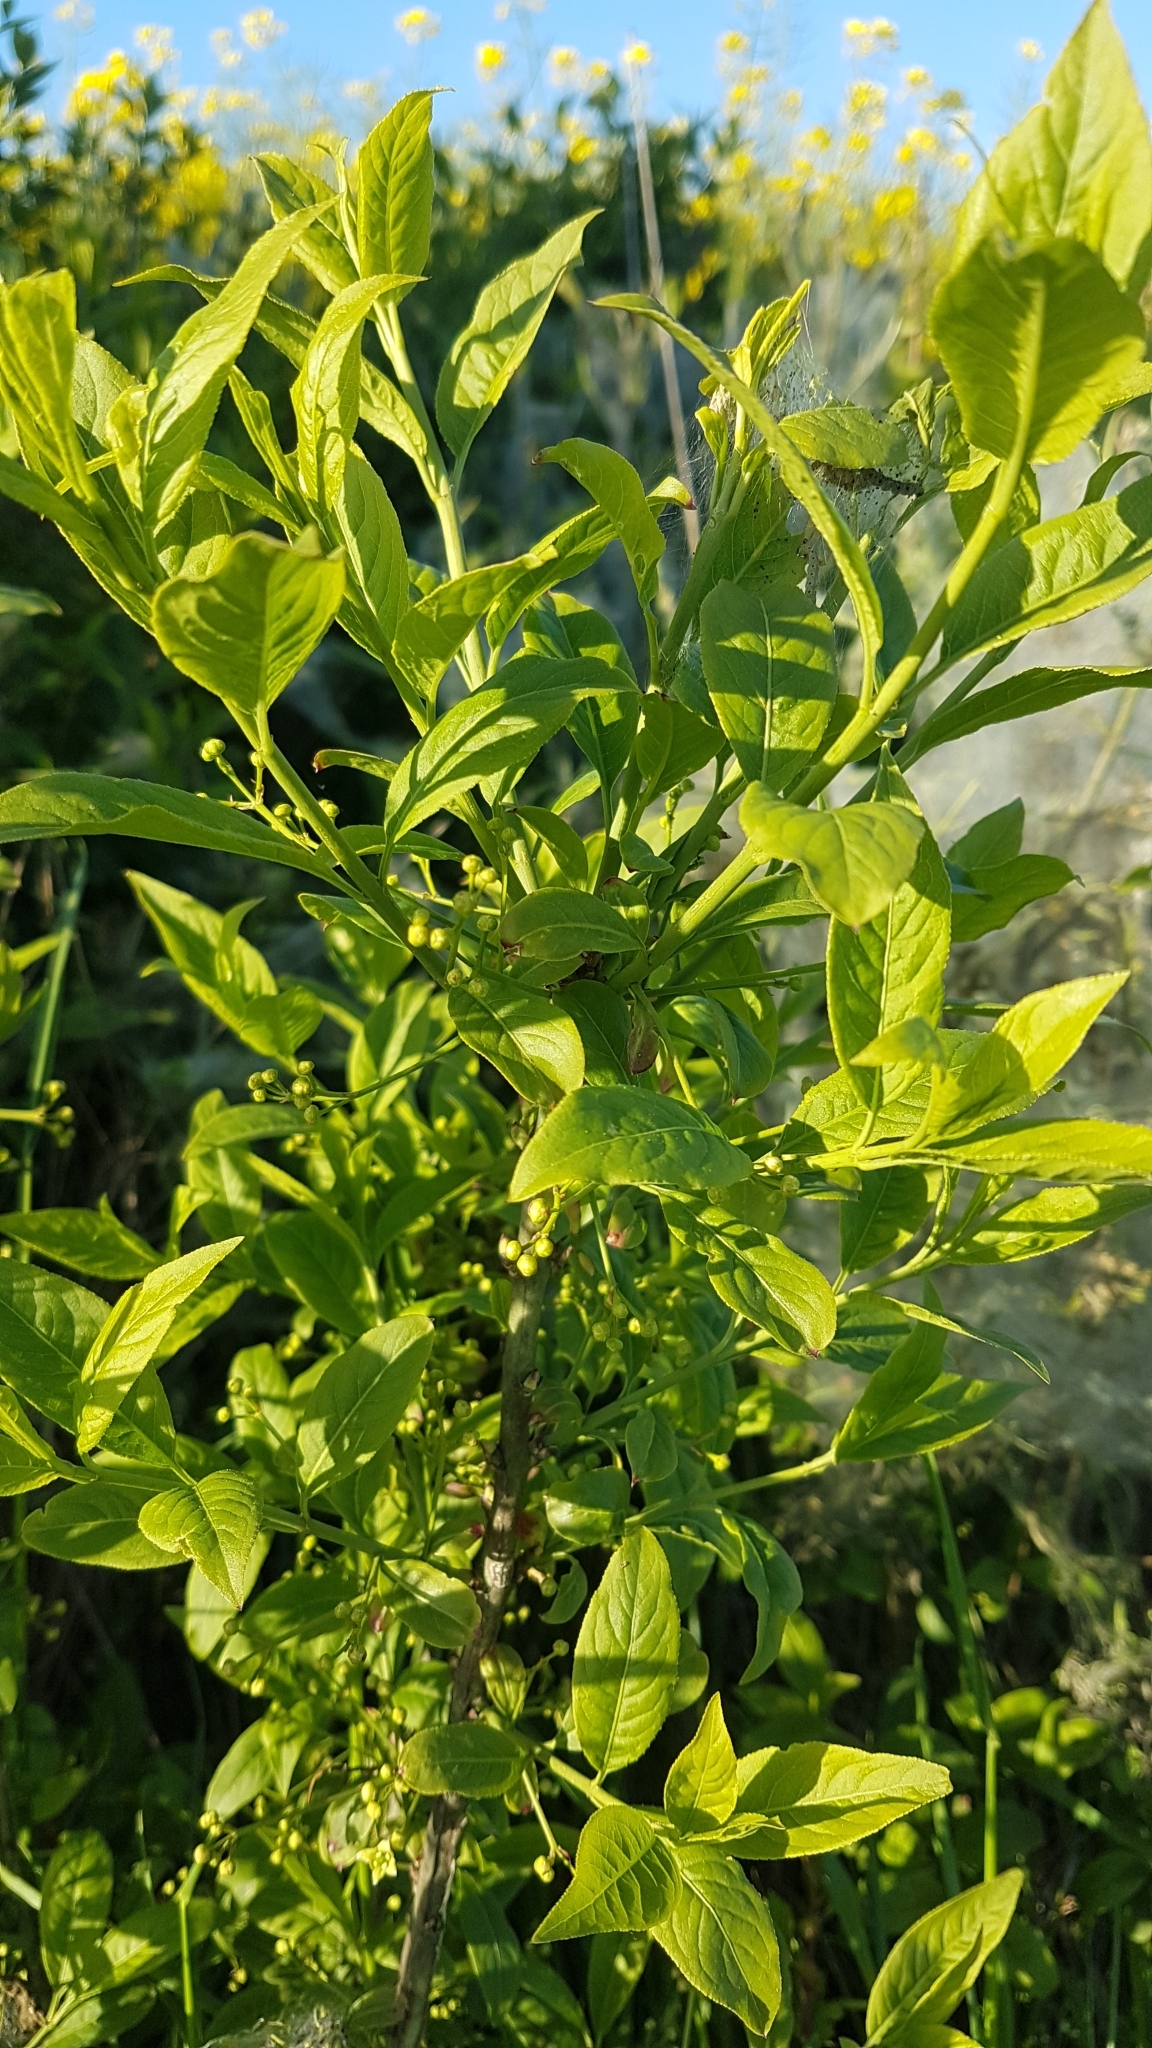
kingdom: Plantae
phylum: Tracheophyta
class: Magnoliopsida
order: Celastrales
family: Celastraceae
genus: Euonymus
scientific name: Euonymus europaeus
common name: Spindle
